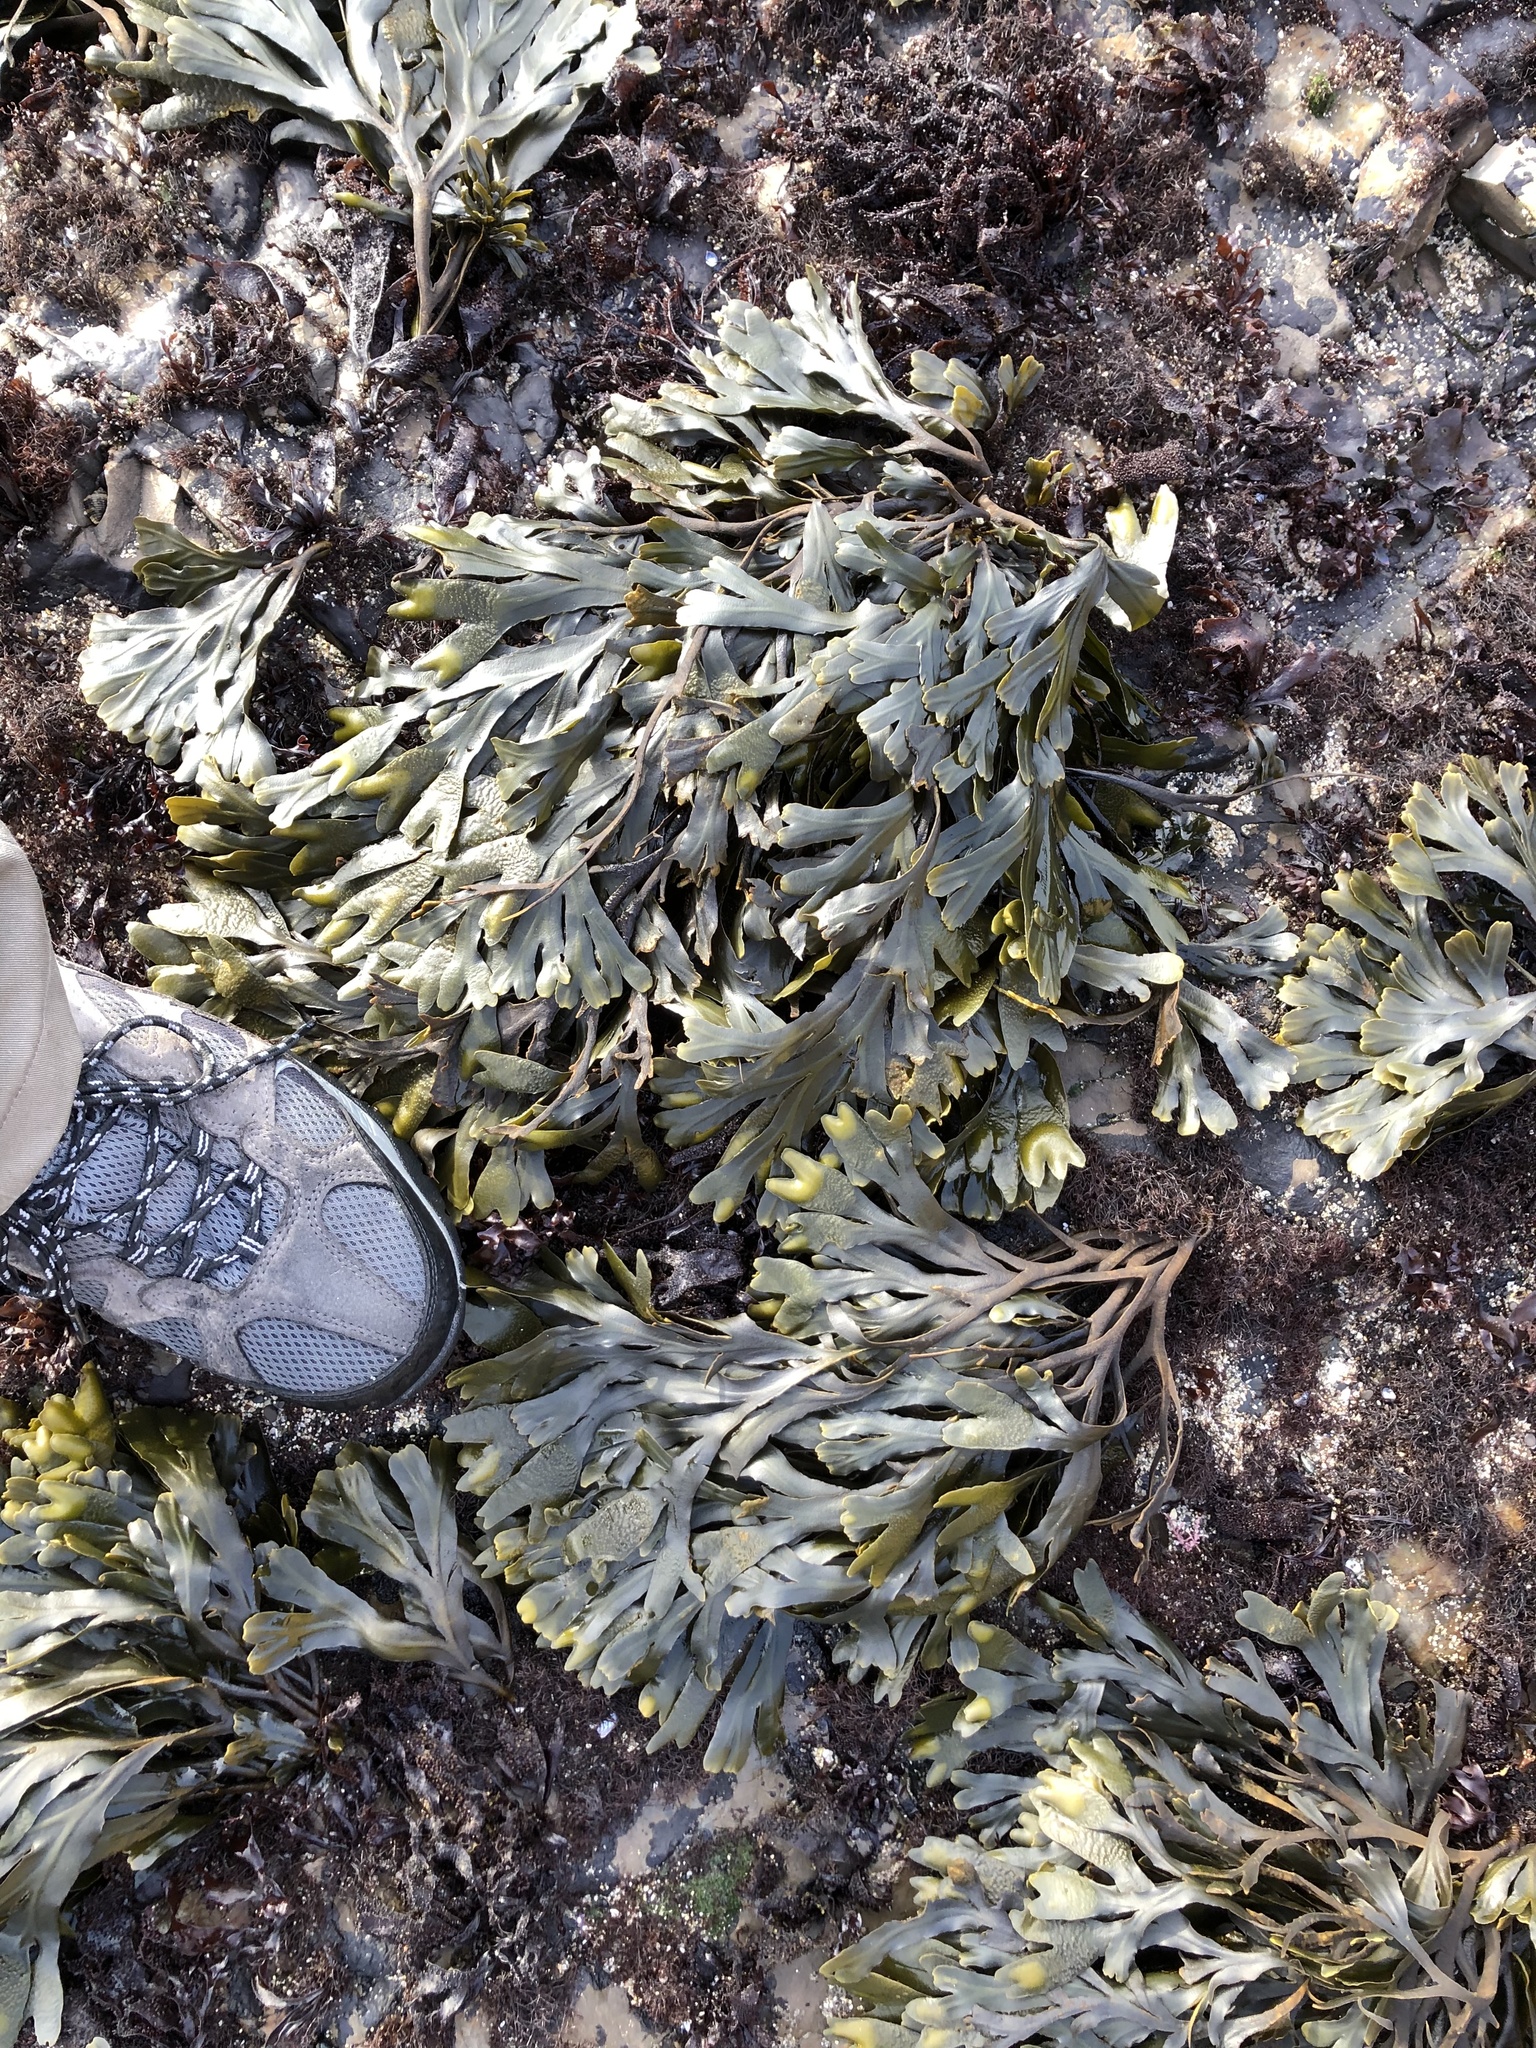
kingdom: Chromista
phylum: Ochrophyta
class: Phaeophyceae
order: Fucales
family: Fucaceae
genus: Fucus
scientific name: Fucus distichus
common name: Rockweed
